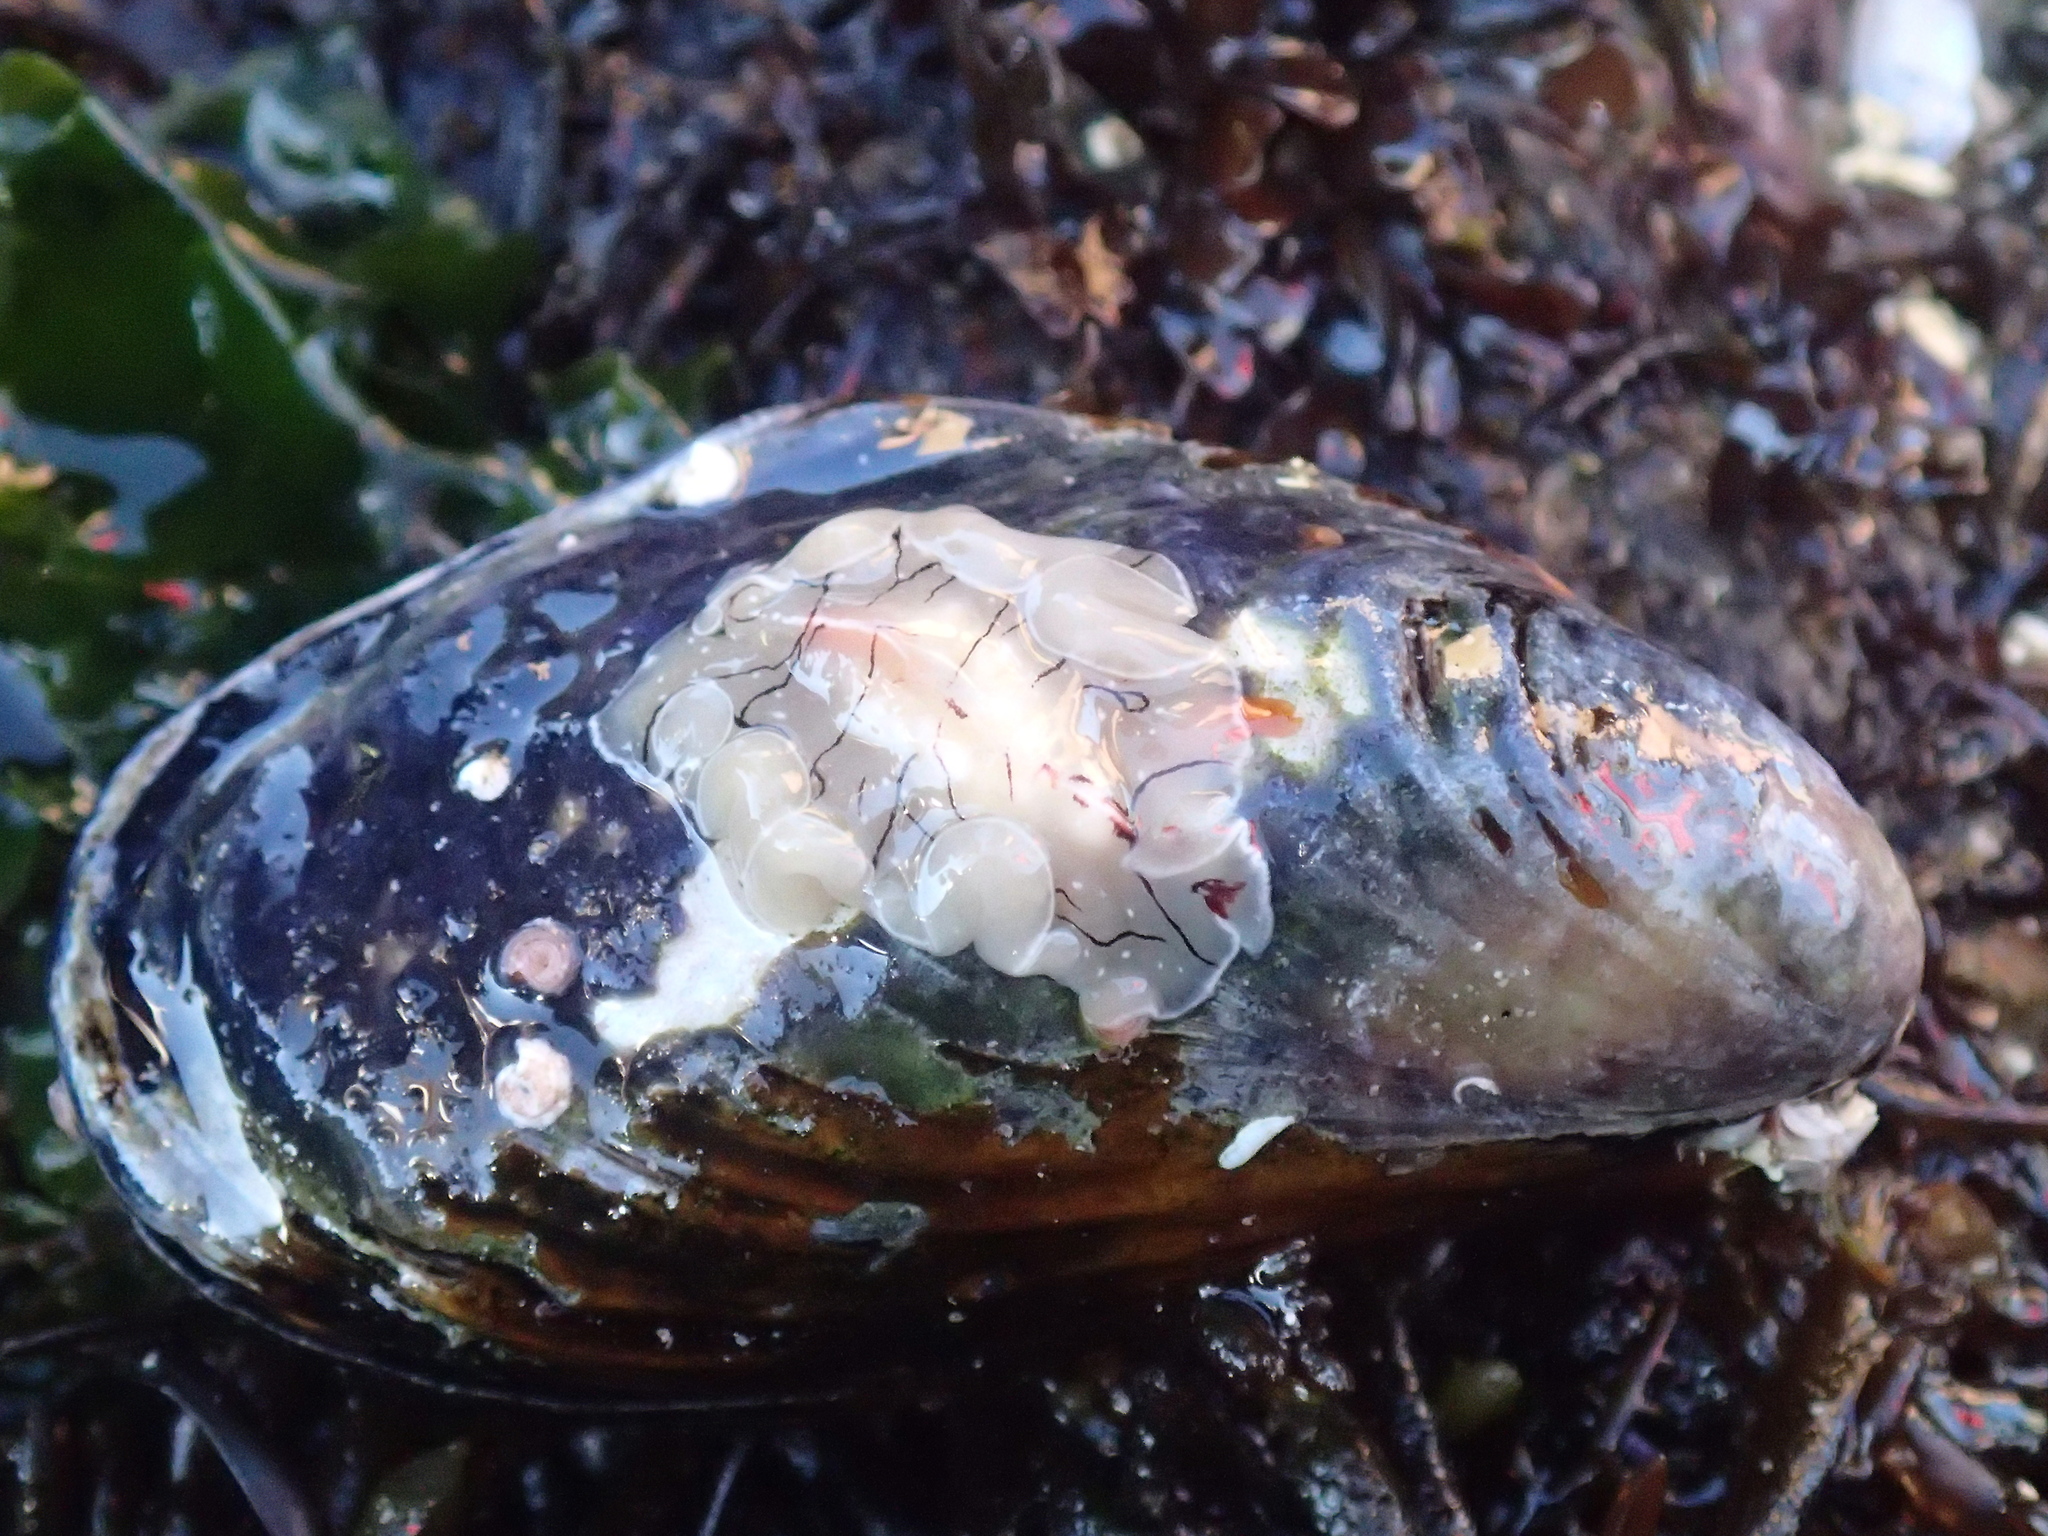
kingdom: Animalia
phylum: Platyhelminthes
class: Turbellaria
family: Euryleptidae
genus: Eurylepta
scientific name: Eurylepta californica
